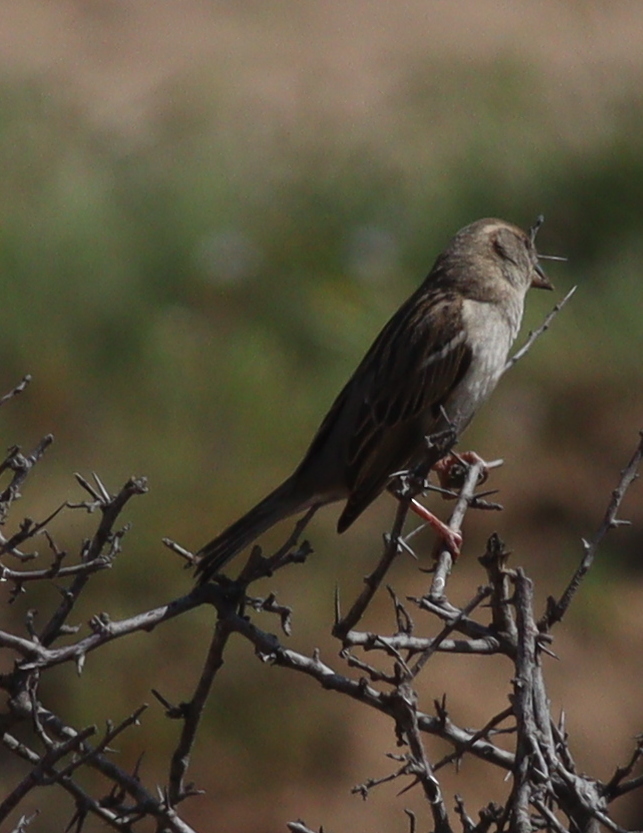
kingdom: Animalia
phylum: Chordata
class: Aves
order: Passeriformes
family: Passeridae
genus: Passer
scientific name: Passer domesticus
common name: House sparrow
